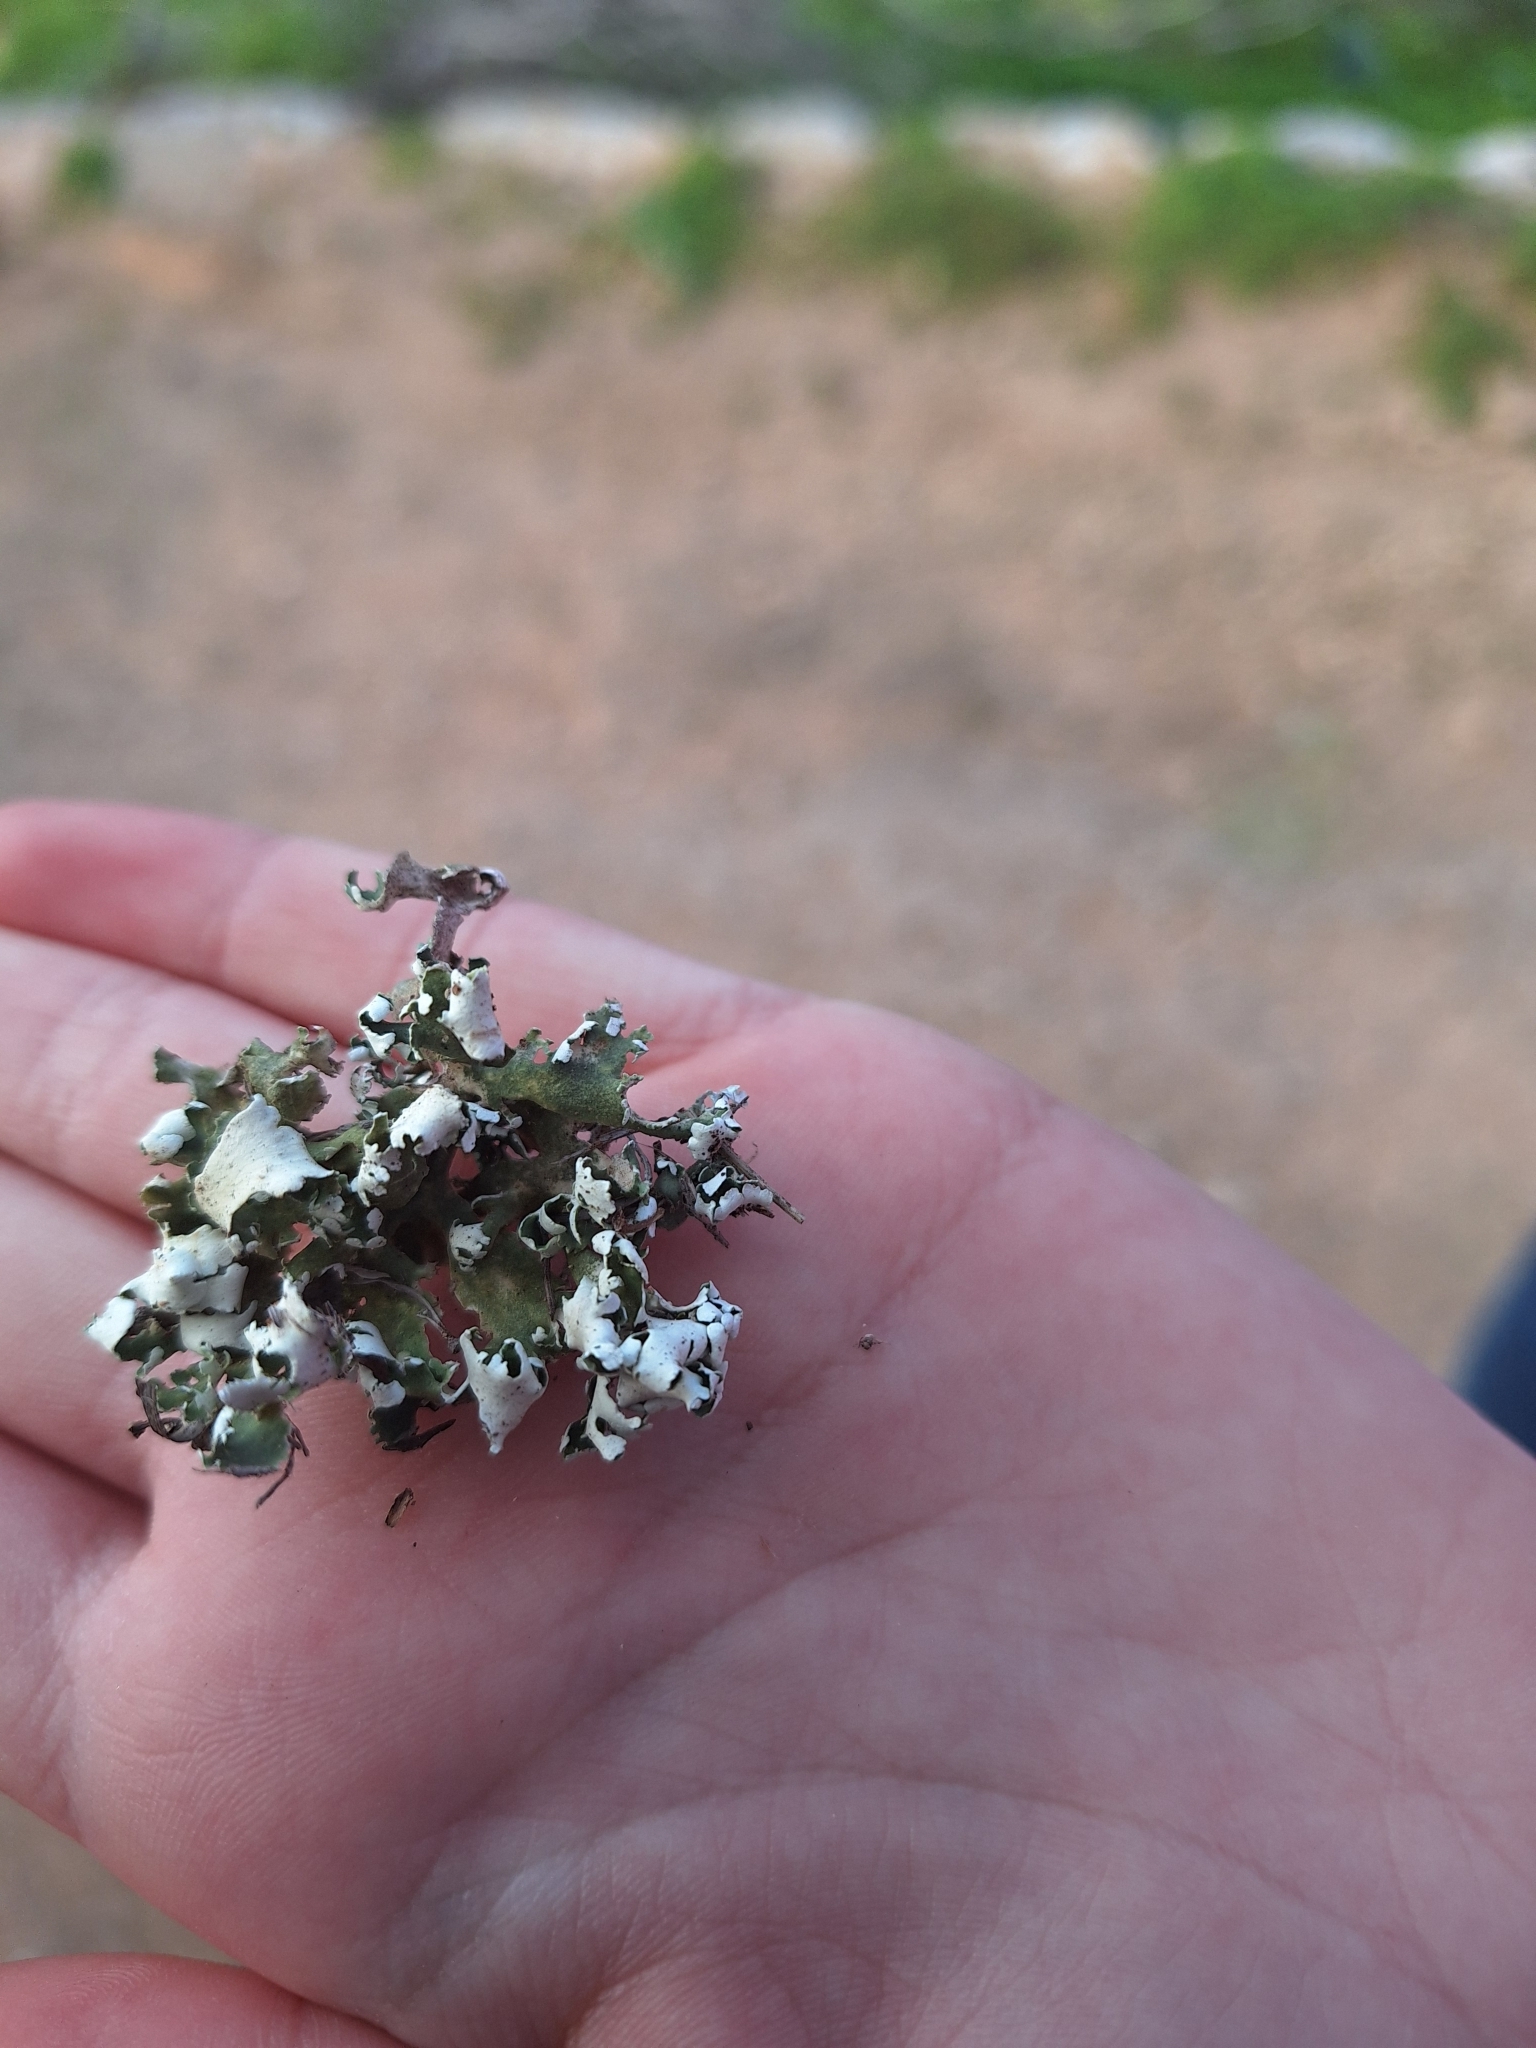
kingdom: Fungi
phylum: Ascomycota
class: Lecanoromycetes
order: Lecanorales
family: Cladoniaceae
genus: Cladonia
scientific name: Cladonia foliacea
